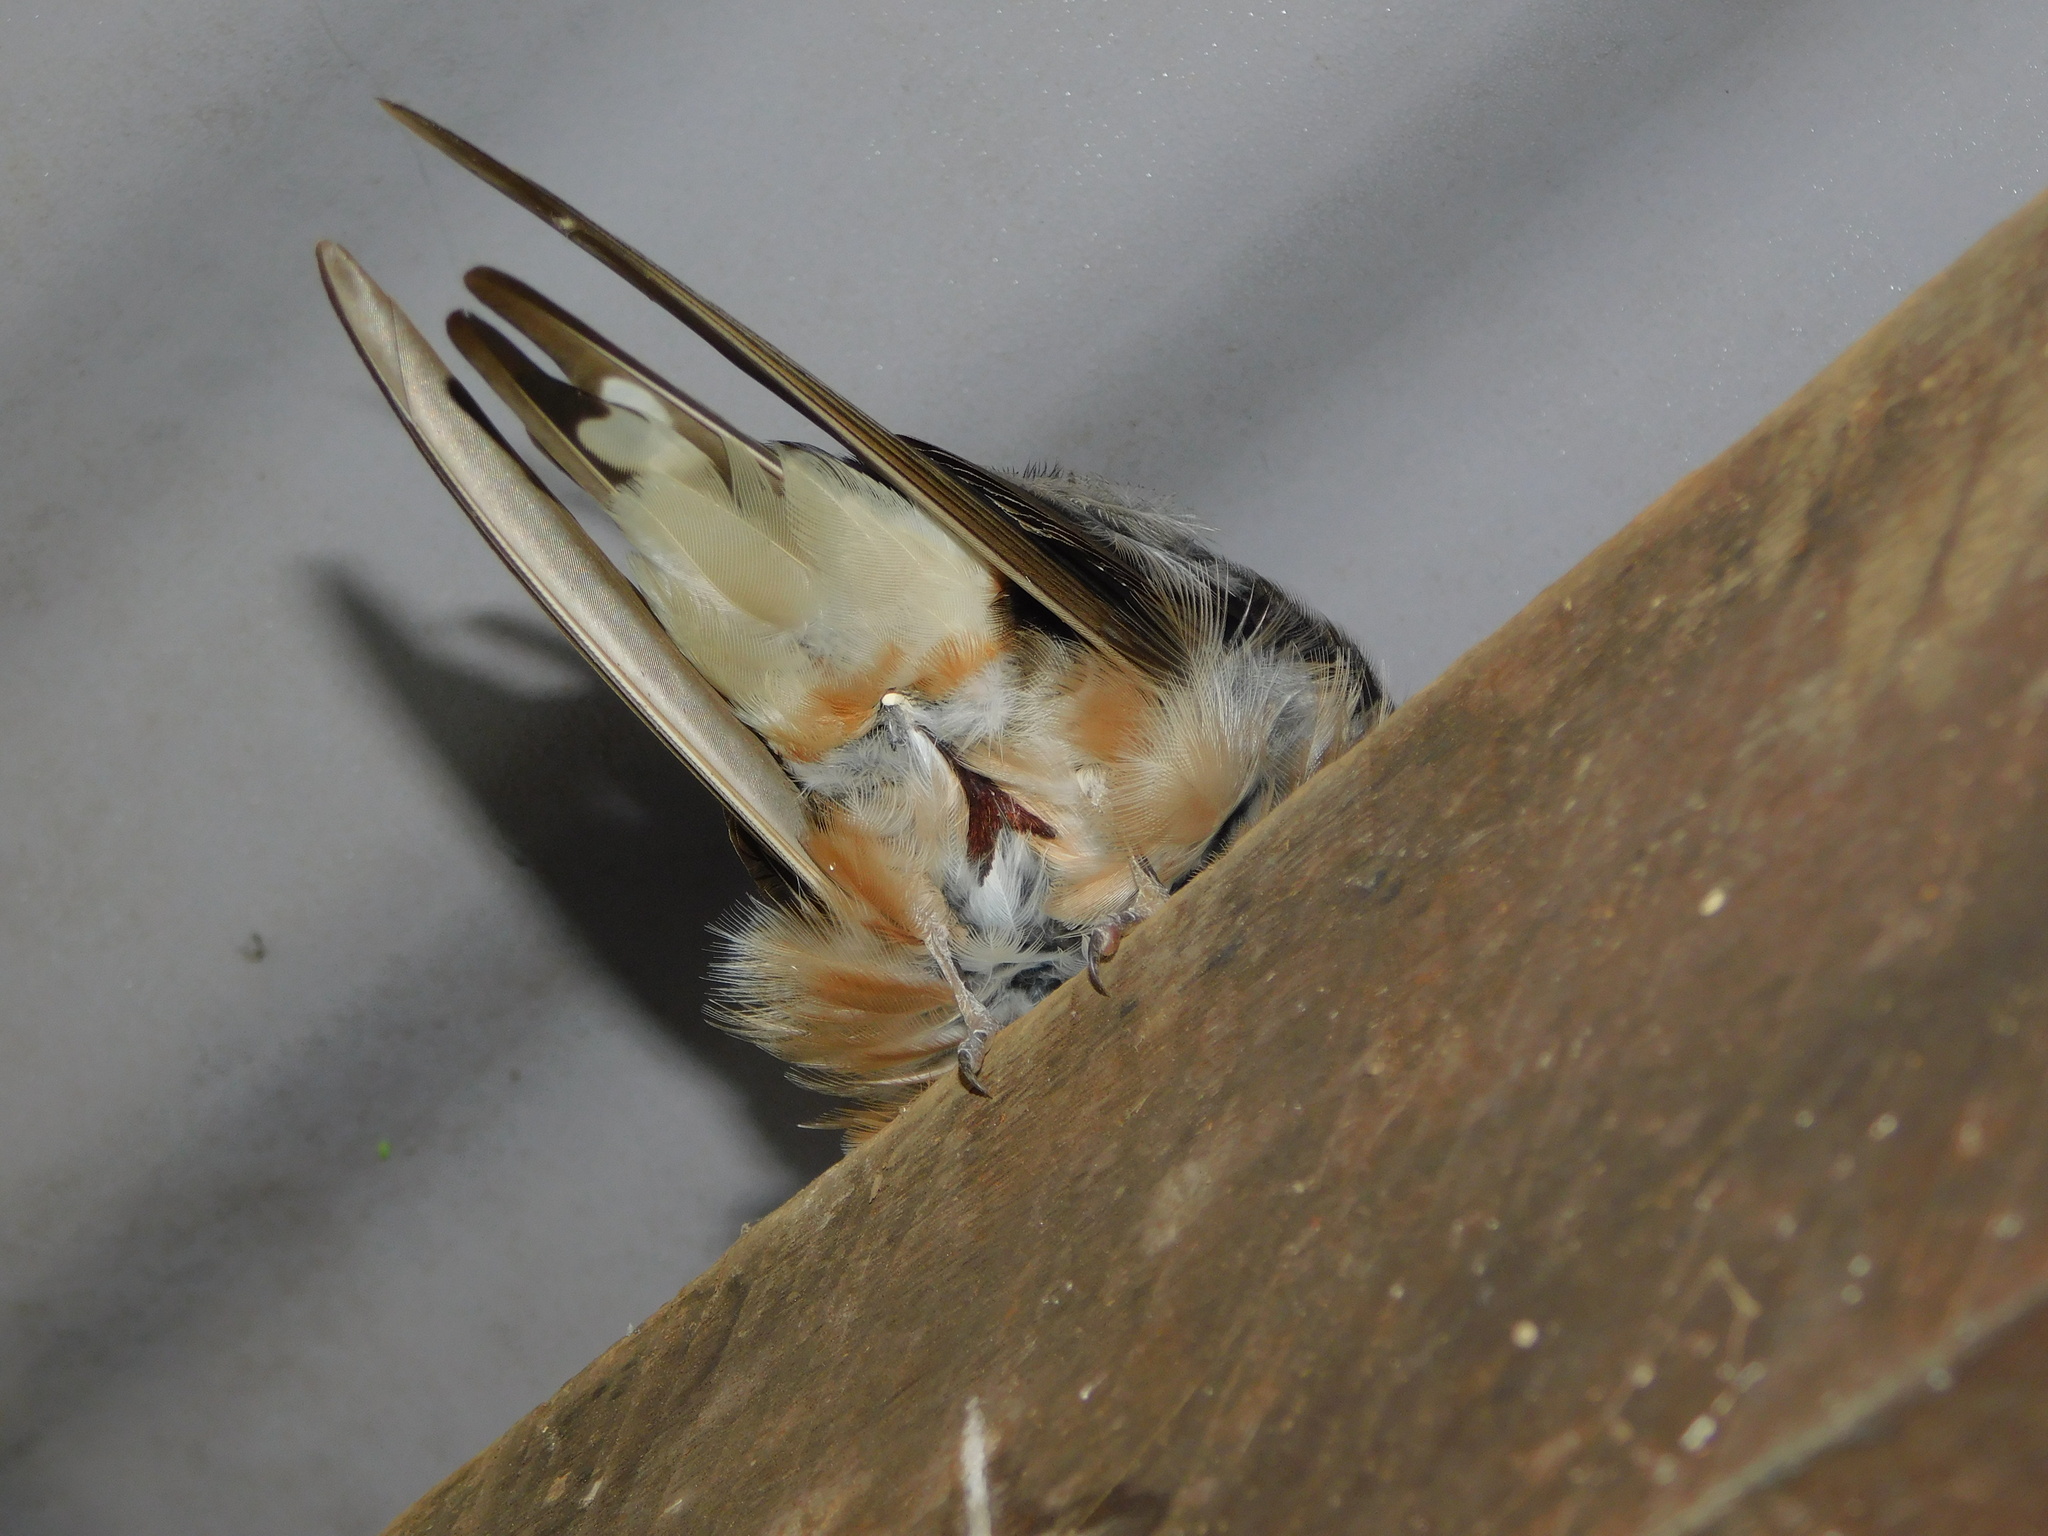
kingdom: Animalia
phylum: Chordata
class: Aves
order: Passeriformes
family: Hirundinidae
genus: Hirundo
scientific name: Hirundo rustica
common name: Barn swallow
